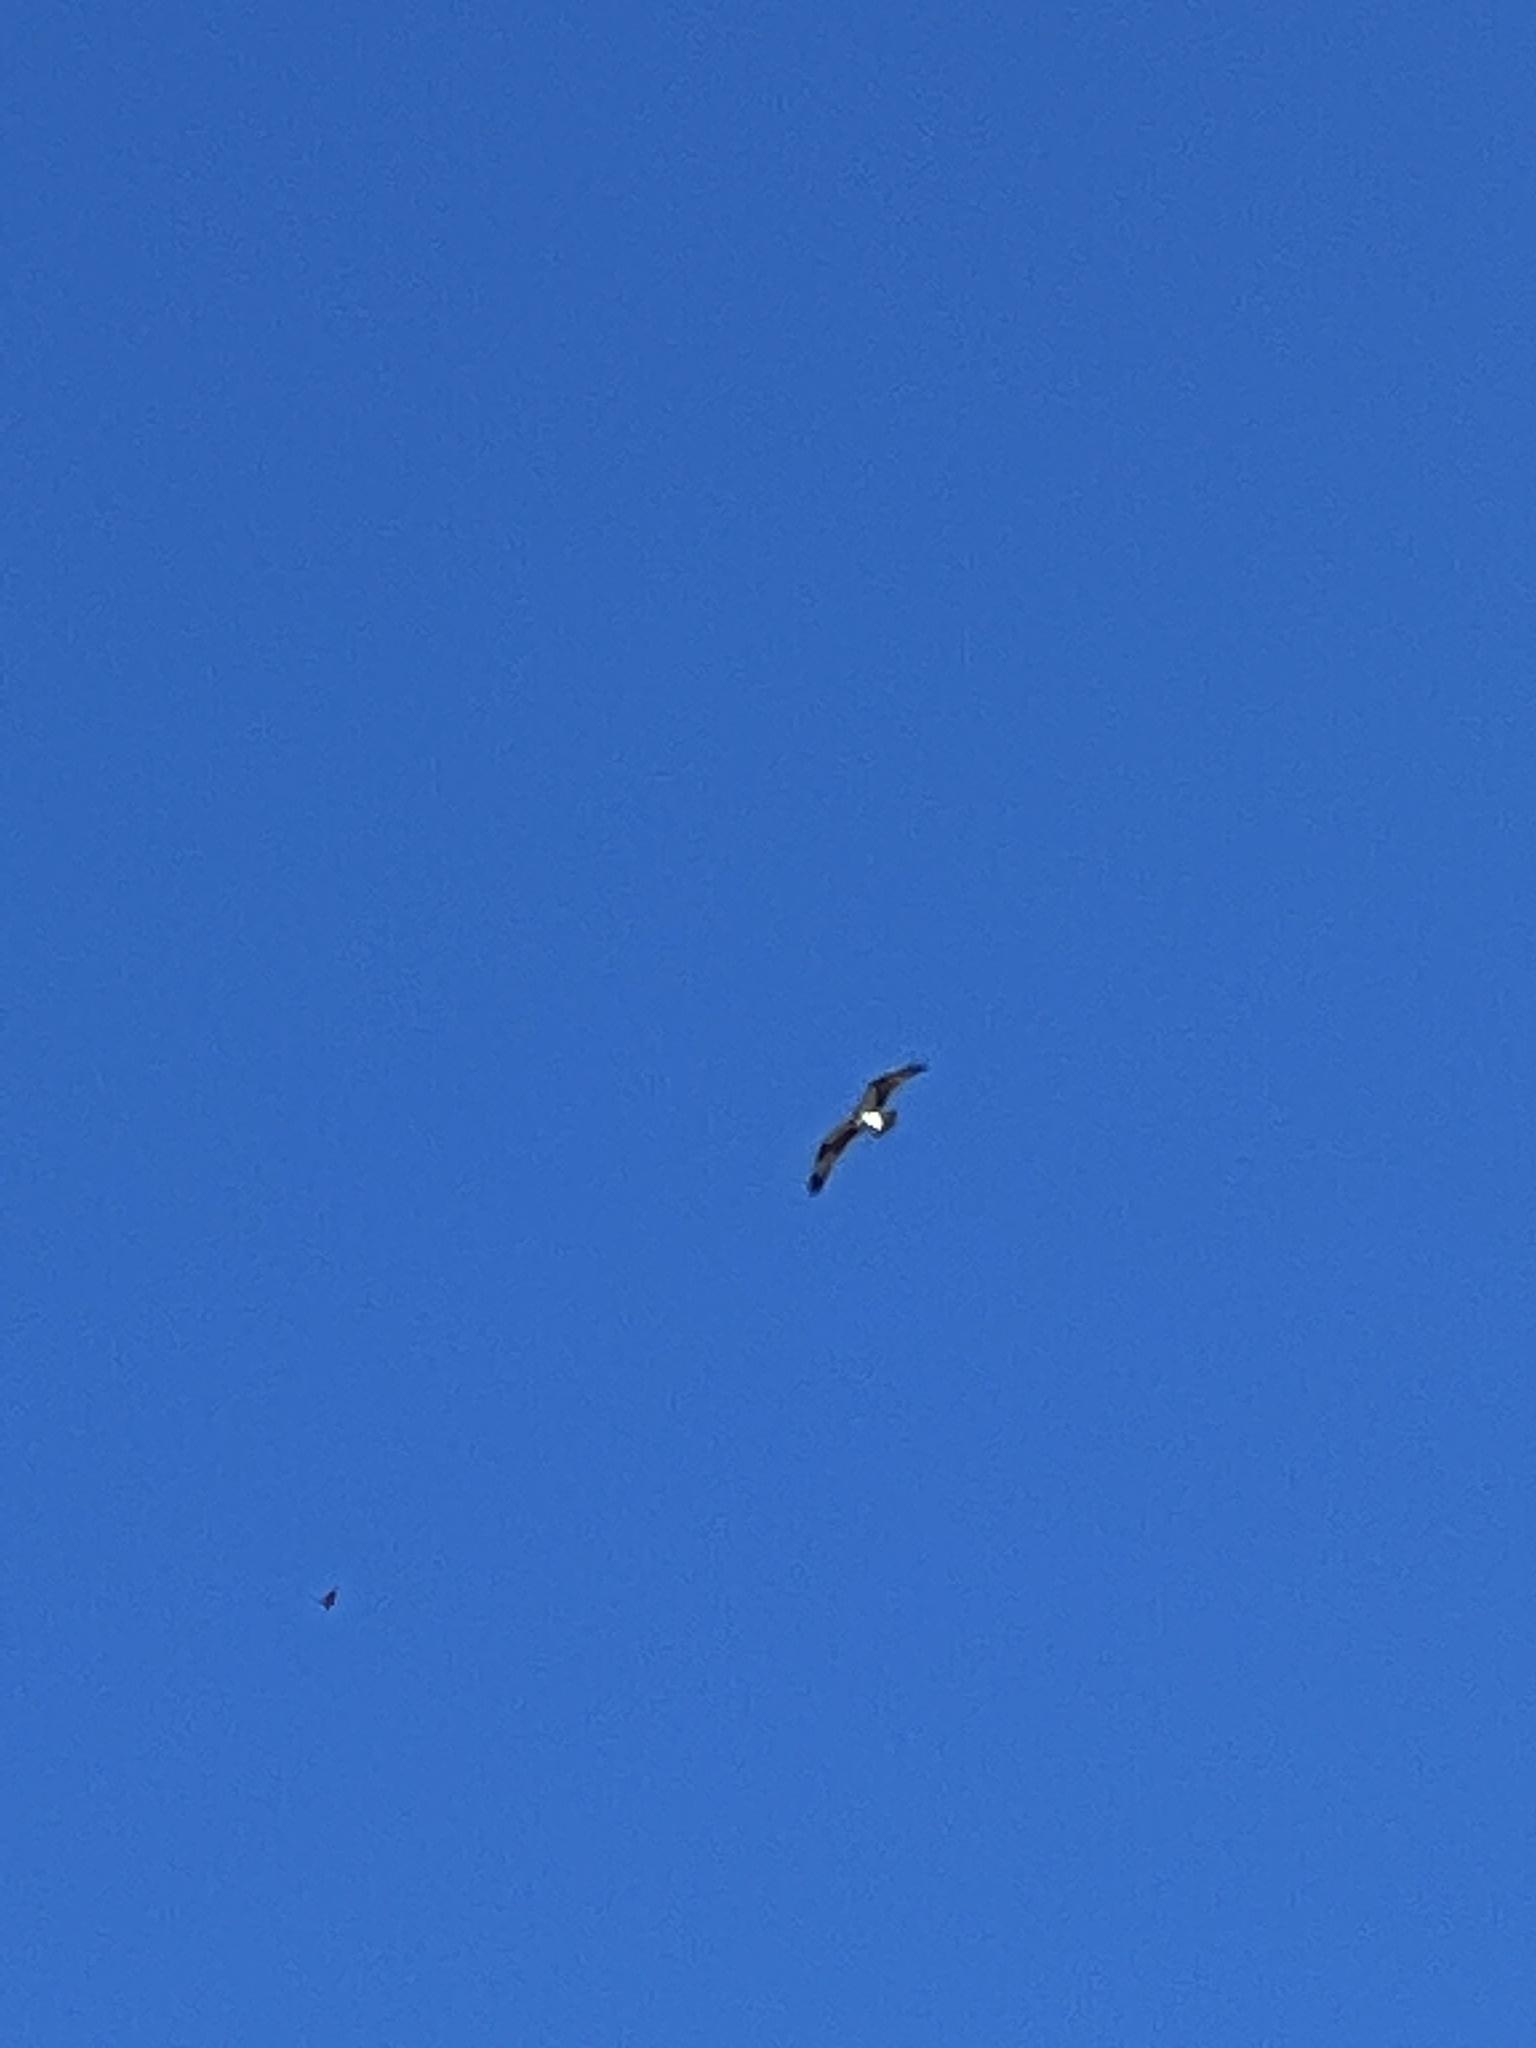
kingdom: Animalia
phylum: Chordata
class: Aves
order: Accipitriformes
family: Pandionidae
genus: Pandion
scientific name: Pandion haliaetus
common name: Osprey
